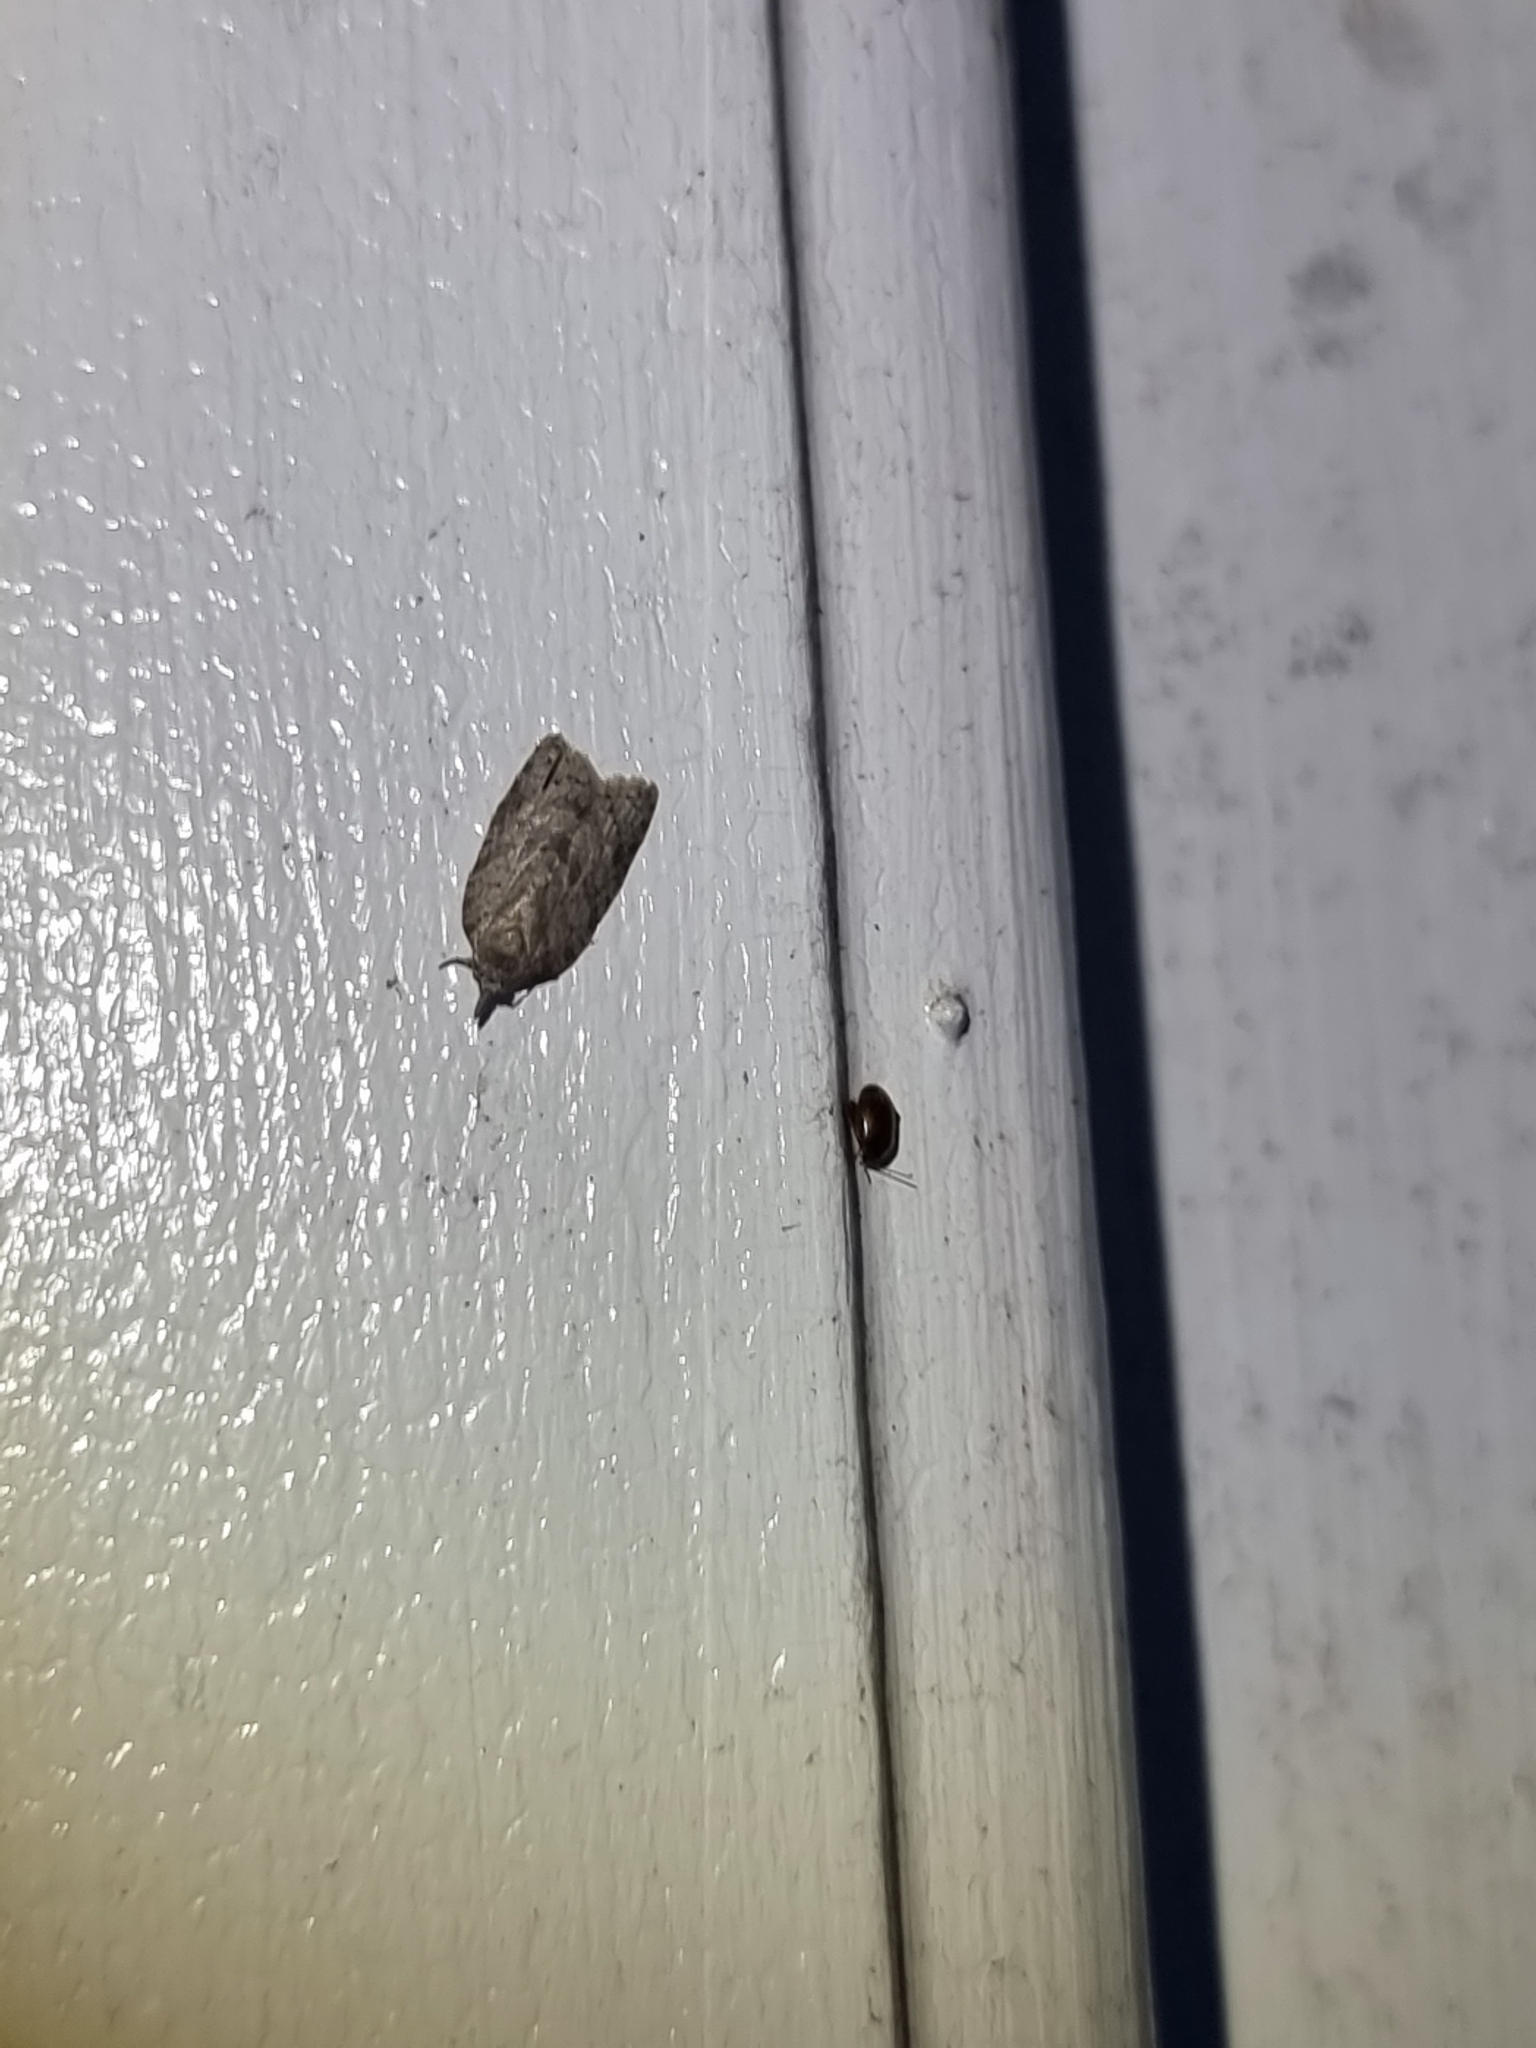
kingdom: Animalia
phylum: Arthropoda
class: Insecta
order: Lepidoptera
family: Tortricidae
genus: Isotenes
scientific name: Isotenes miserana
